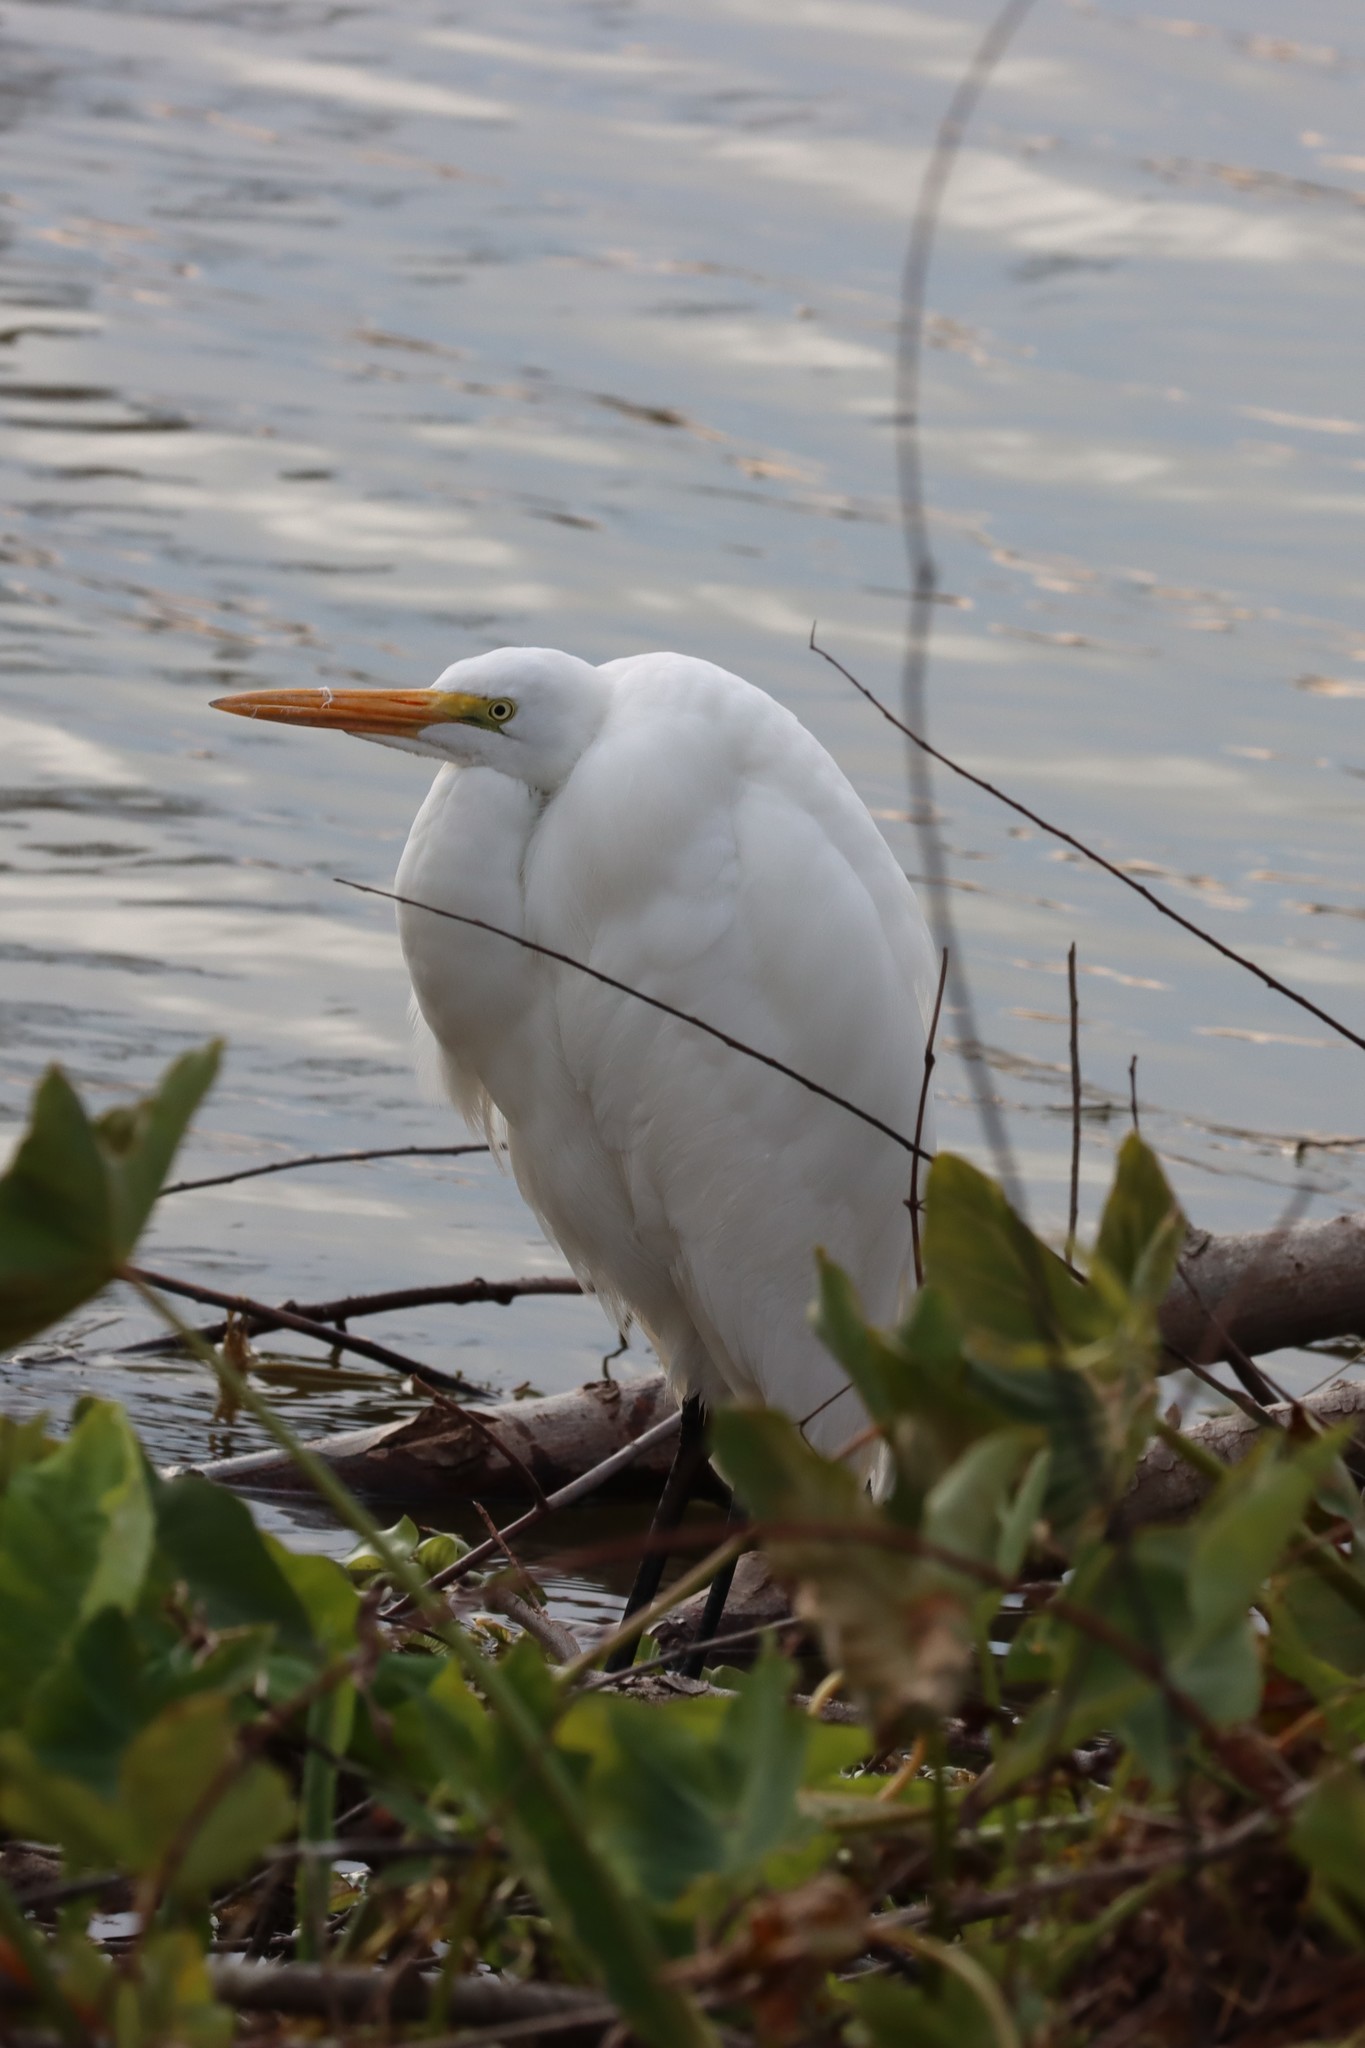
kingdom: Animalia
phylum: Chordata
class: Aves
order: Pelecaniformes
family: Ardeidae
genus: Ardea
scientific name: Ardea alba
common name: Great egret
